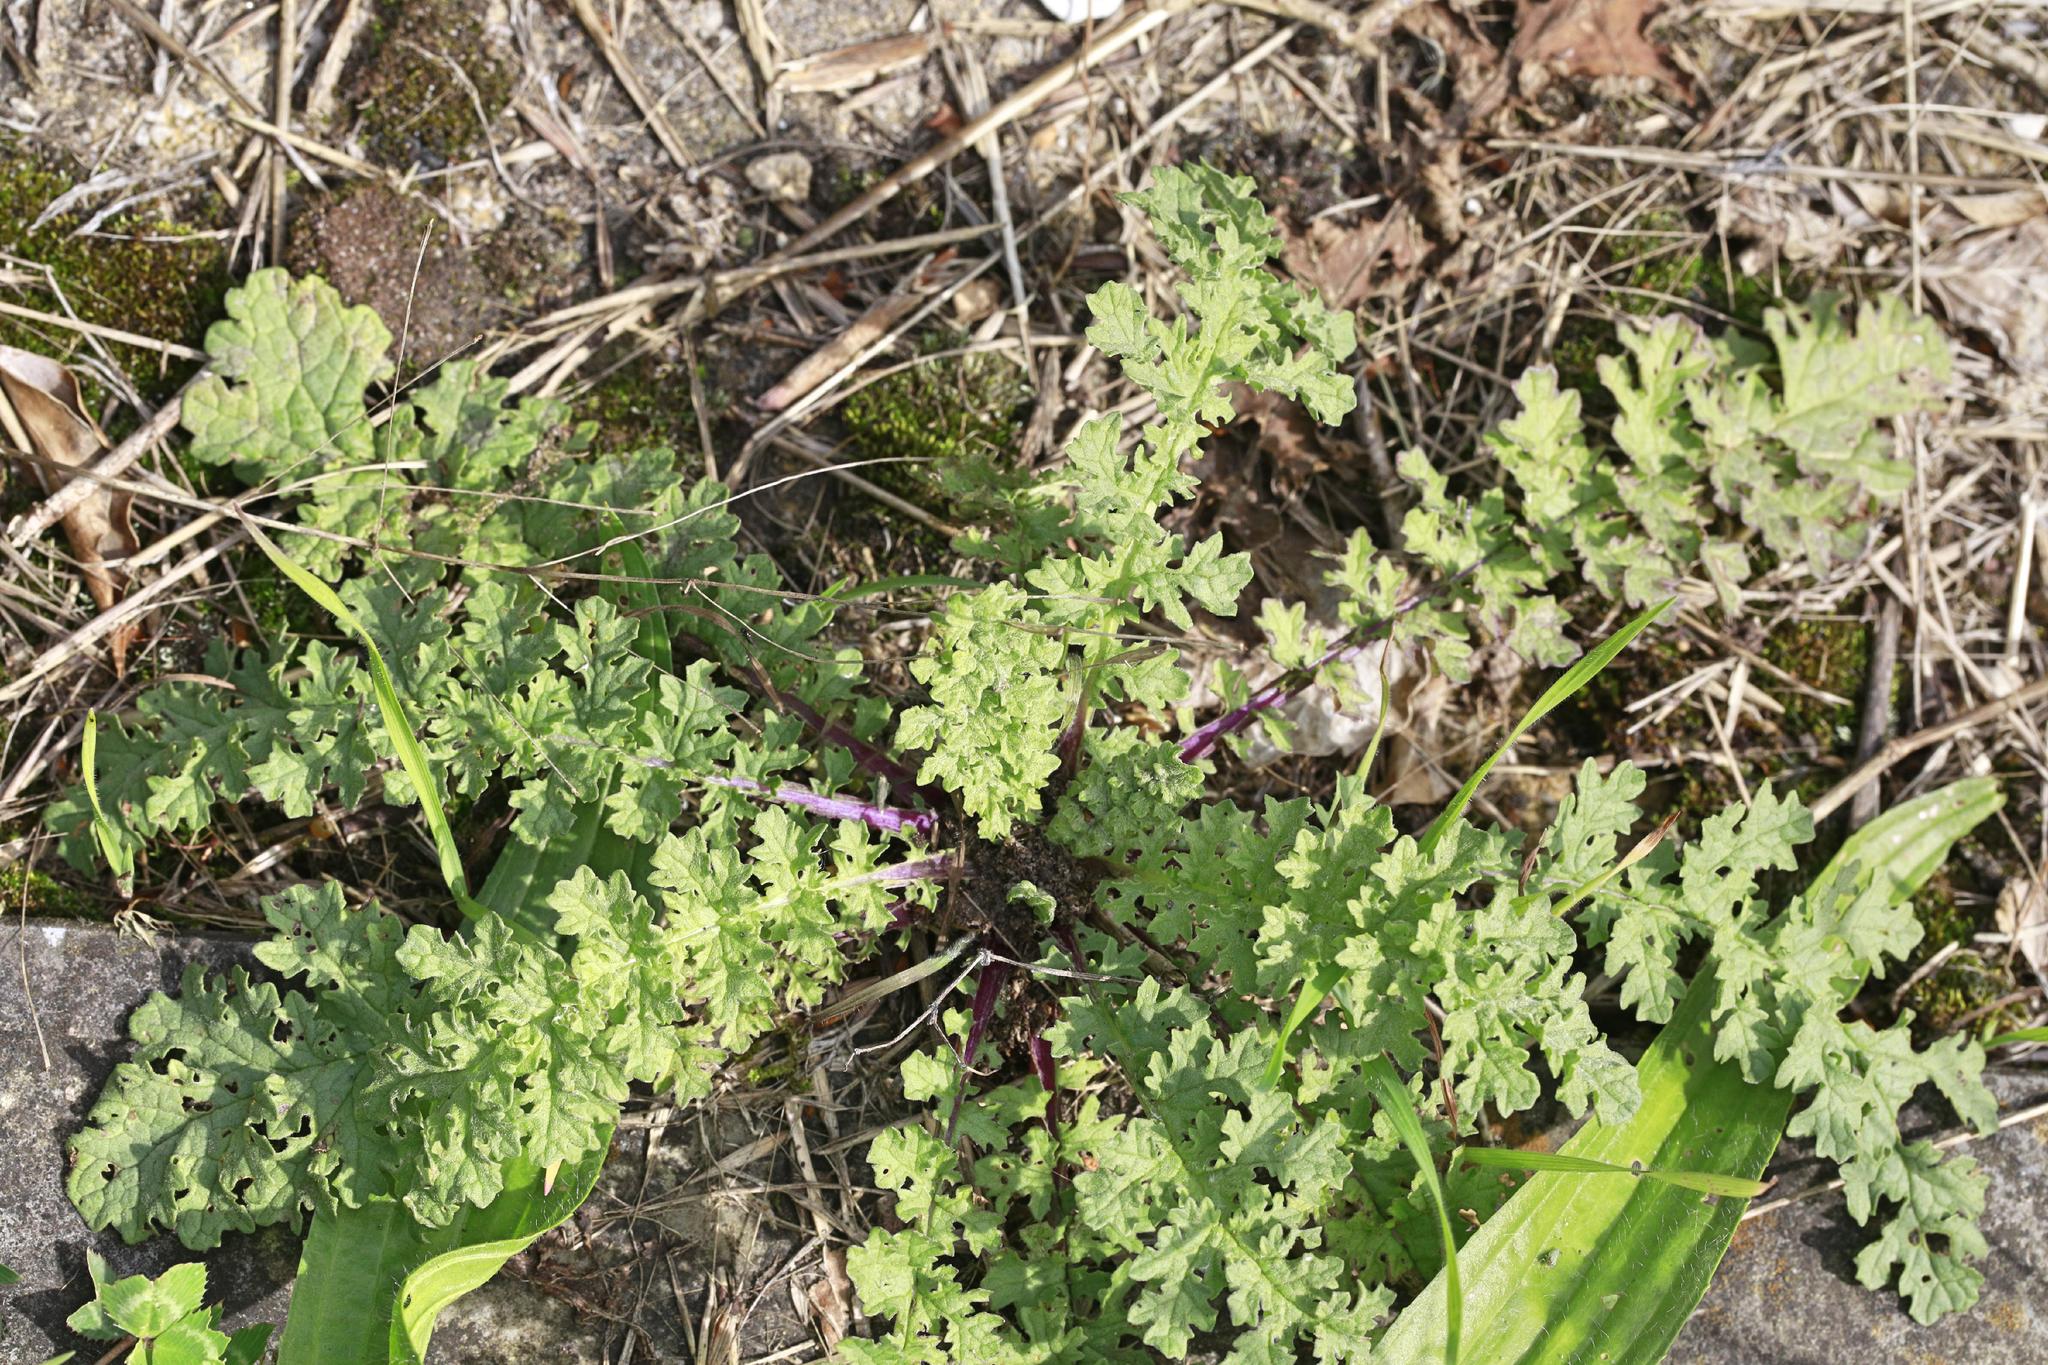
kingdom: Plantae
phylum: Tracheophyta
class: Magnoliopsida
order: Asterales
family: Asteraceae
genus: Jacobaea
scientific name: Jacobaea vulgaris
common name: Stinking willie
